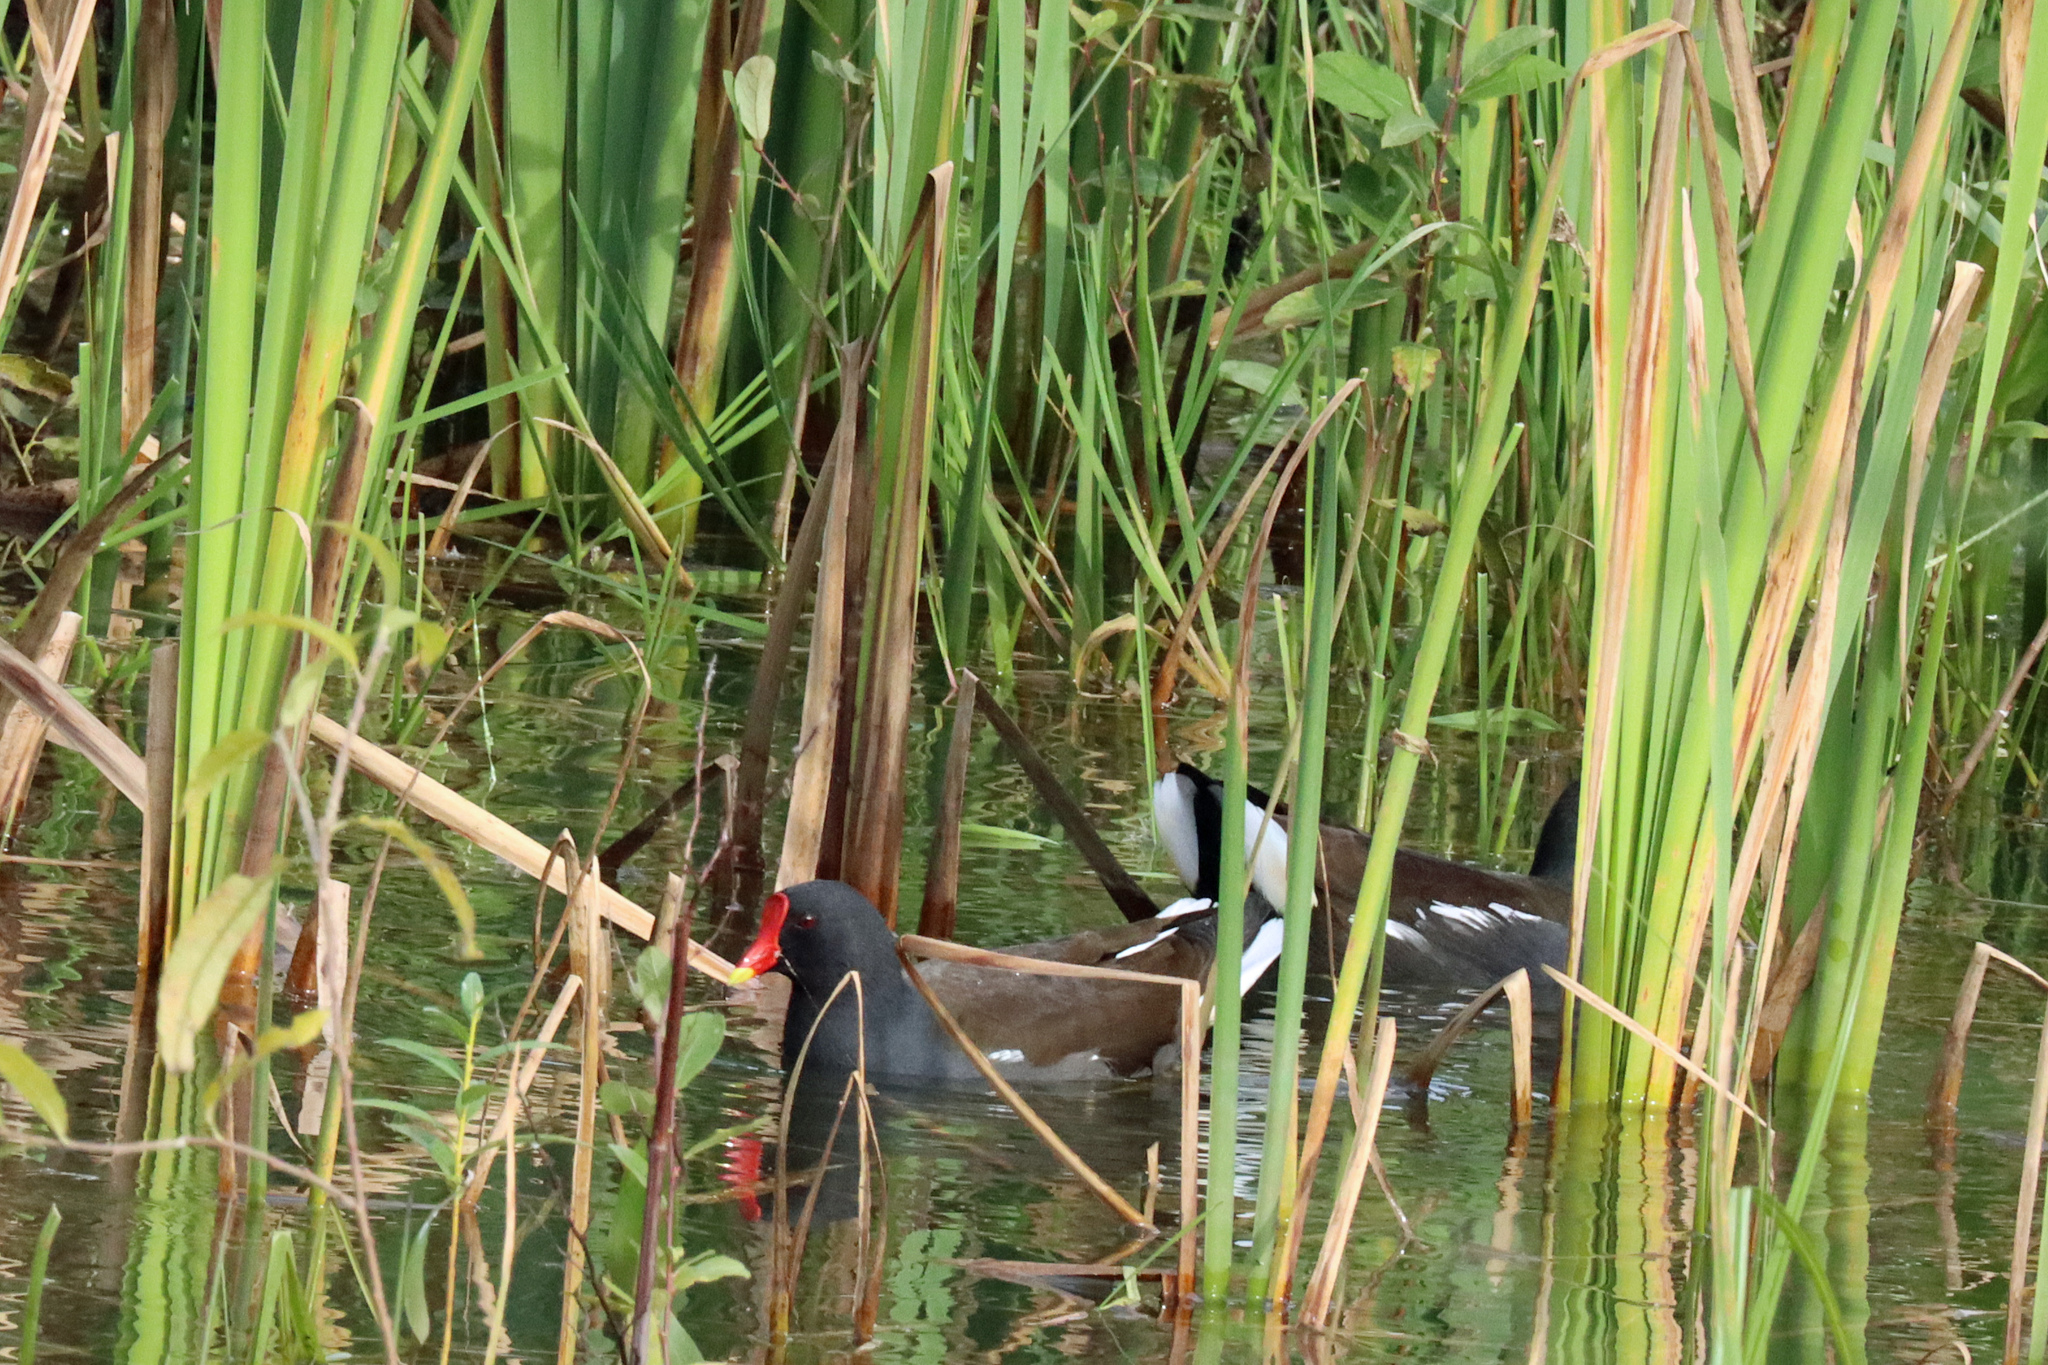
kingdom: Animalia
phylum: Chordata
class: Aves
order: Gruiformes
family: Rallidae
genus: Gallinula
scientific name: Gallinula chloropus
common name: Common moorhen
